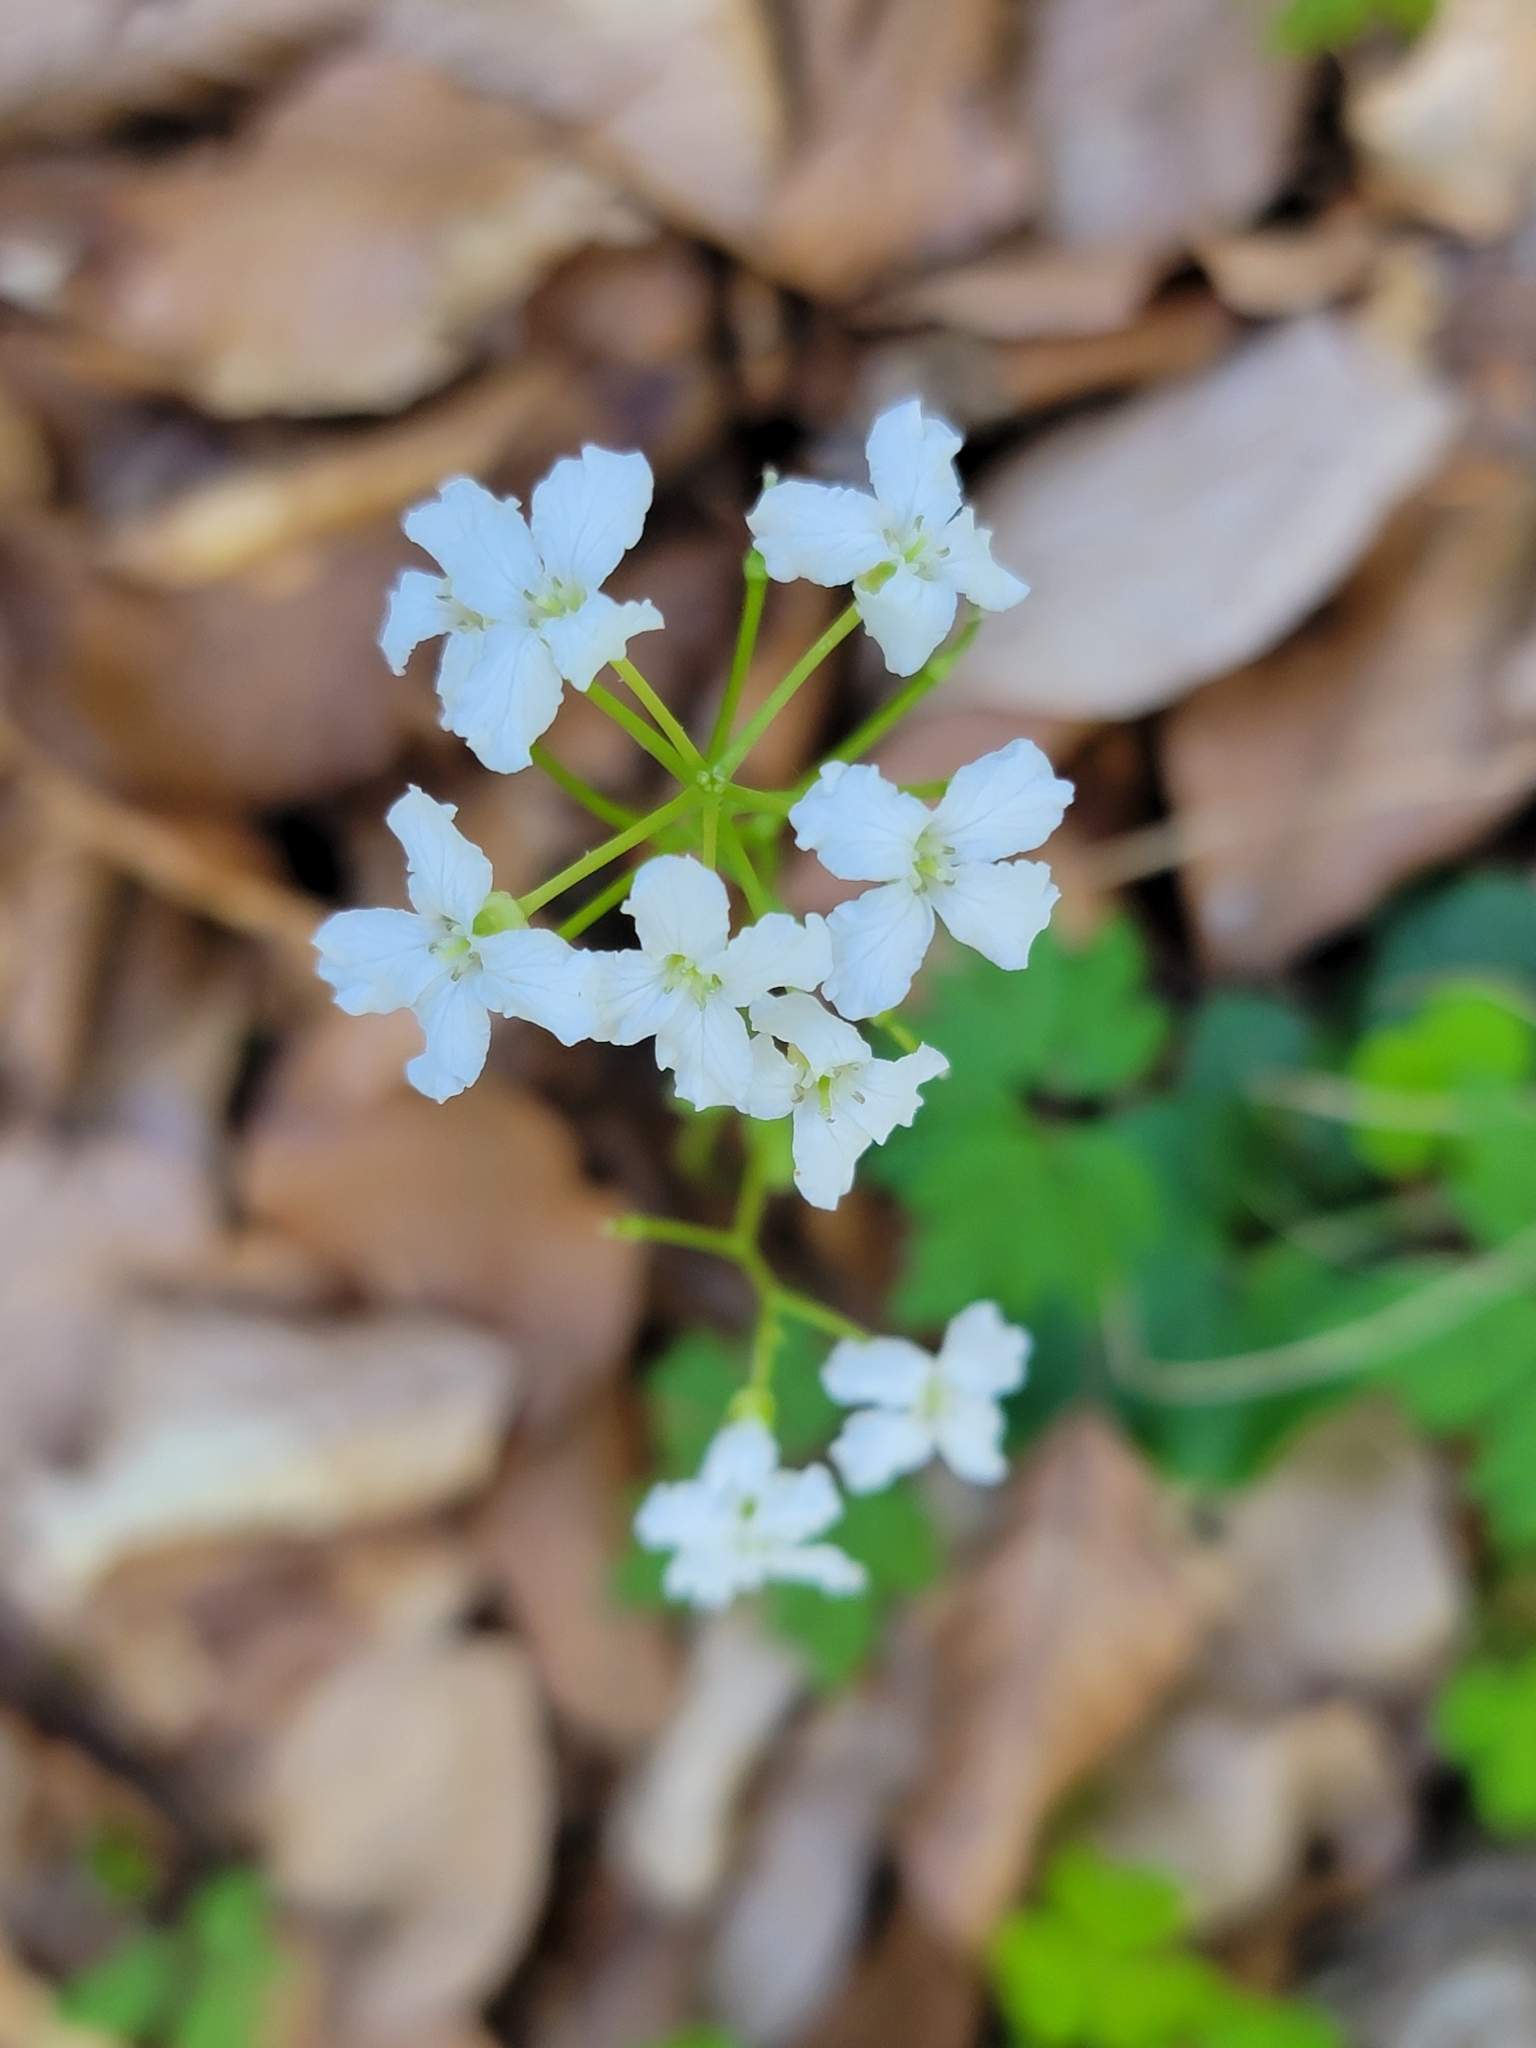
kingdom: Plantae
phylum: Tracheophyta
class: Magnoliopsida
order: Brassicales
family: Brassicaceae
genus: Cardamine
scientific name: Cardamine trifolia
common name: Trefoil cress
